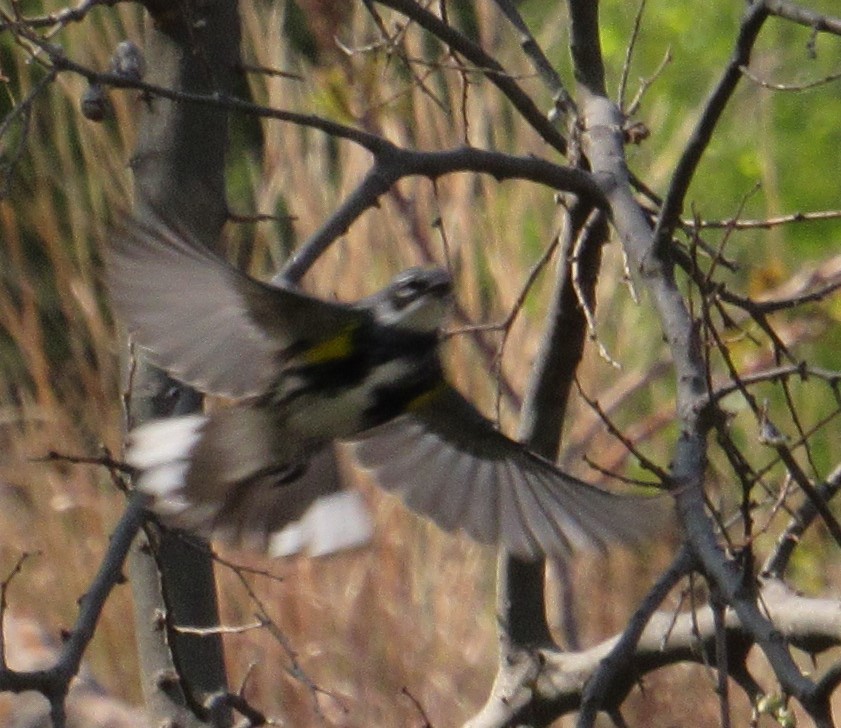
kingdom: Animalia
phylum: Chordata
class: Aves
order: Passeriformes
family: Parulidae
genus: Setophaga
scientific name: Setophaga coronata
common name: Myrtle warbler
